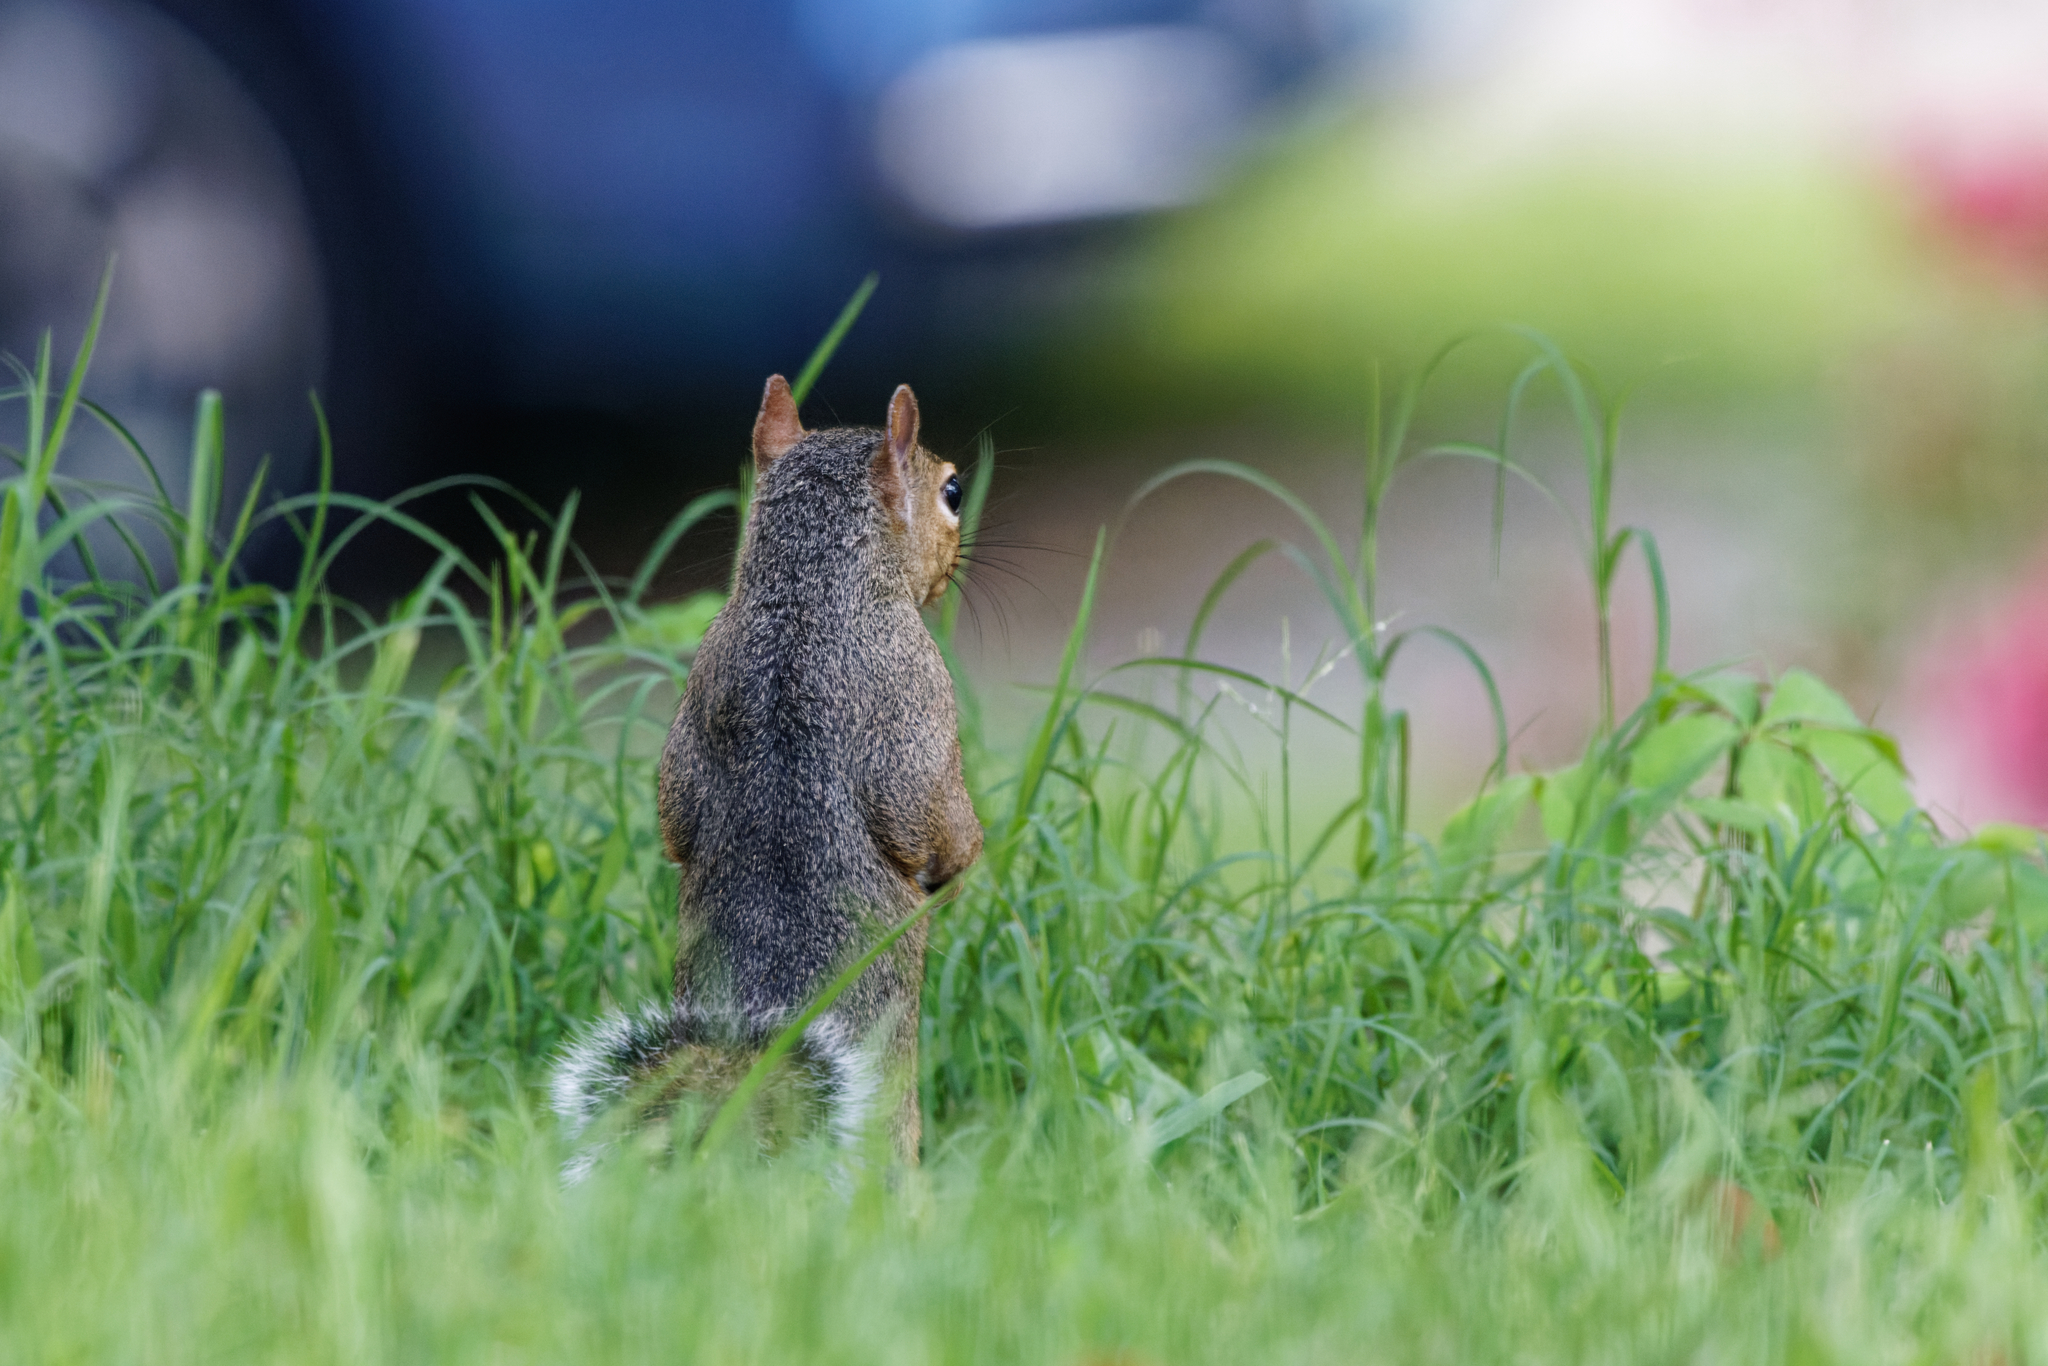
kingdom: Animalia
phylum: Chordata
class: Mammalia
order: Rodentia
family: Sciuridae
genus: Sciurus
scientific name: Sciurus carolinensis
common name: Eastern gray squirrel
